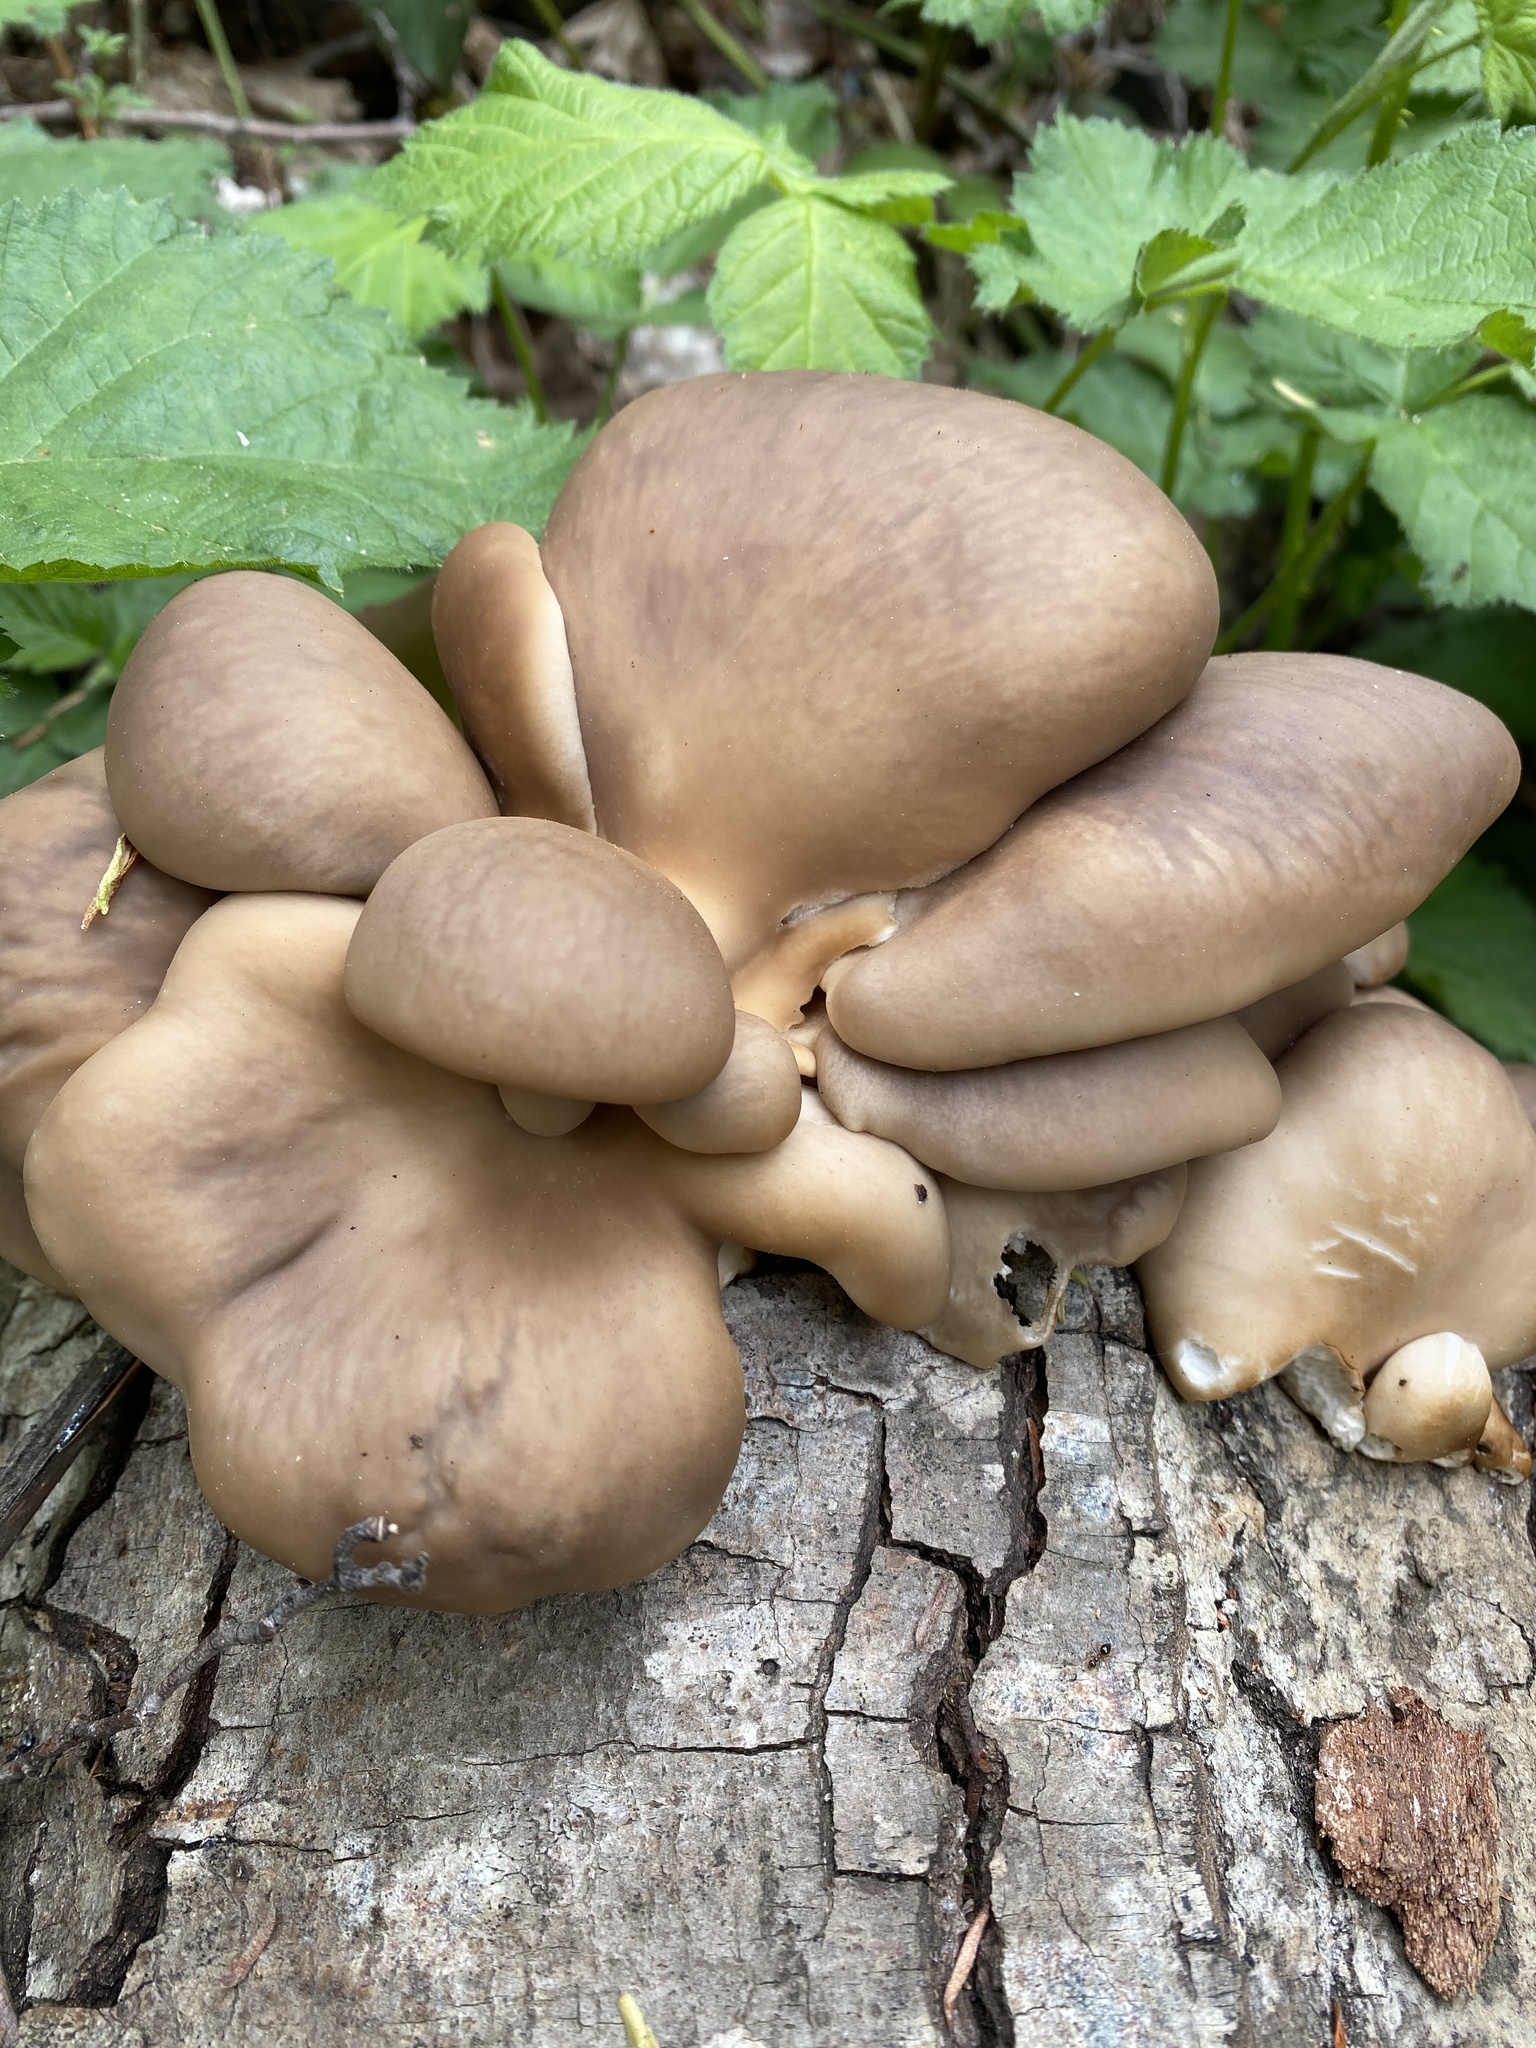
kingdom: Fungi
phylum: Basidiomycota
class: Agaricomycetes
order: Agaricales
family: Pleurotaceae
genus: Pleurotus
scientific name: Pleurotus ostreatus
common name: Oyster mushroom
